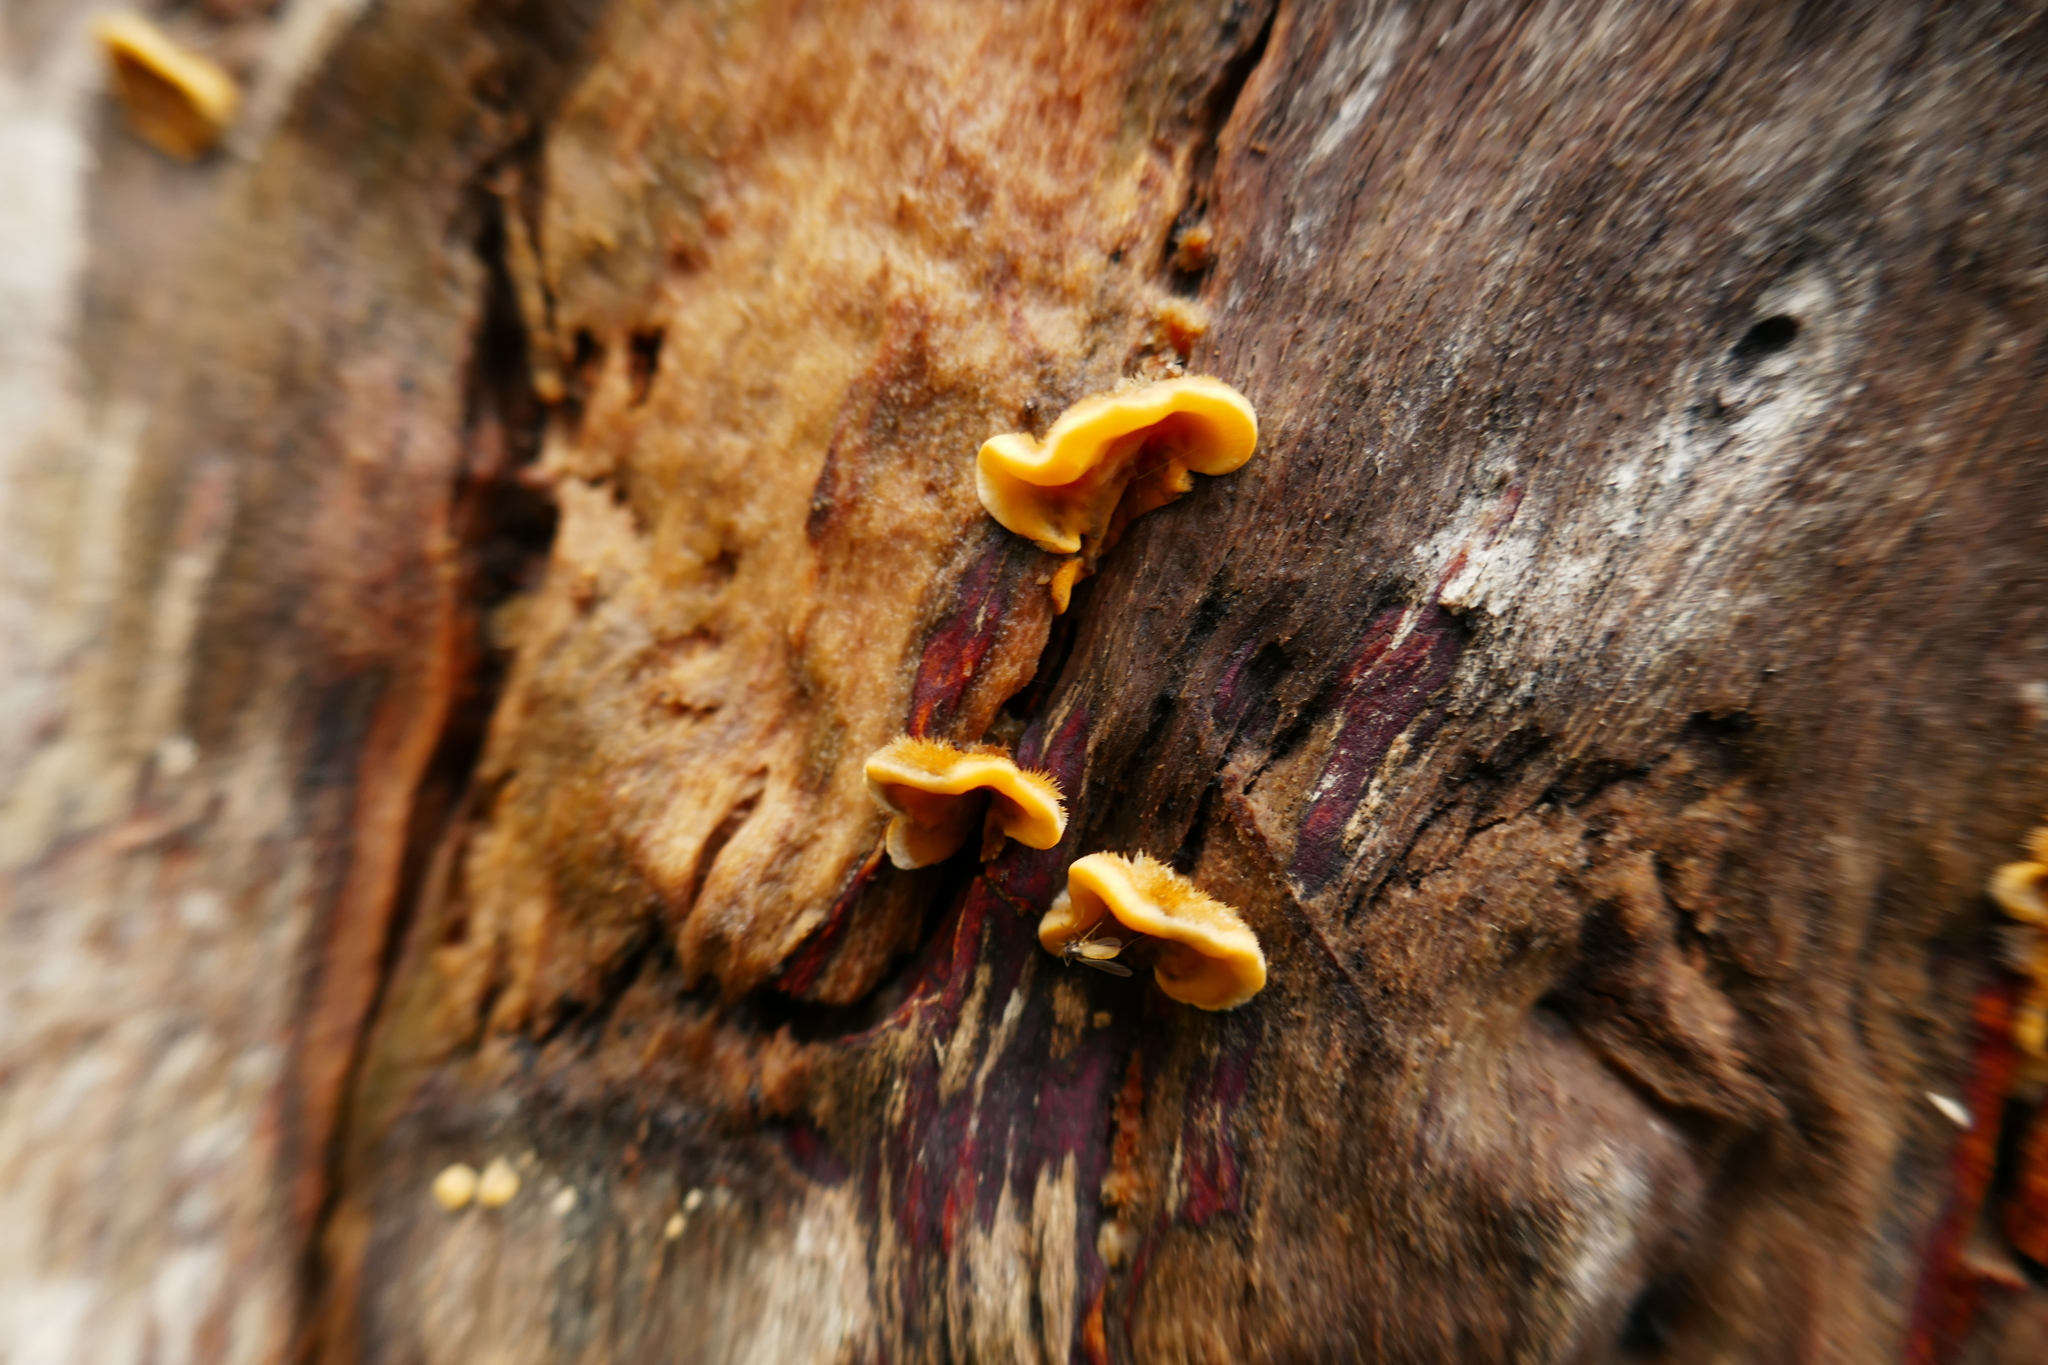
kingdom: Fungi
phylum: Basidiomycota
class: Agaricomycetes
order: Russulales
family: Stereaceae
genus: Stereum
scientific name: Stereum hirsutum
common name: Hairy curtain crust
